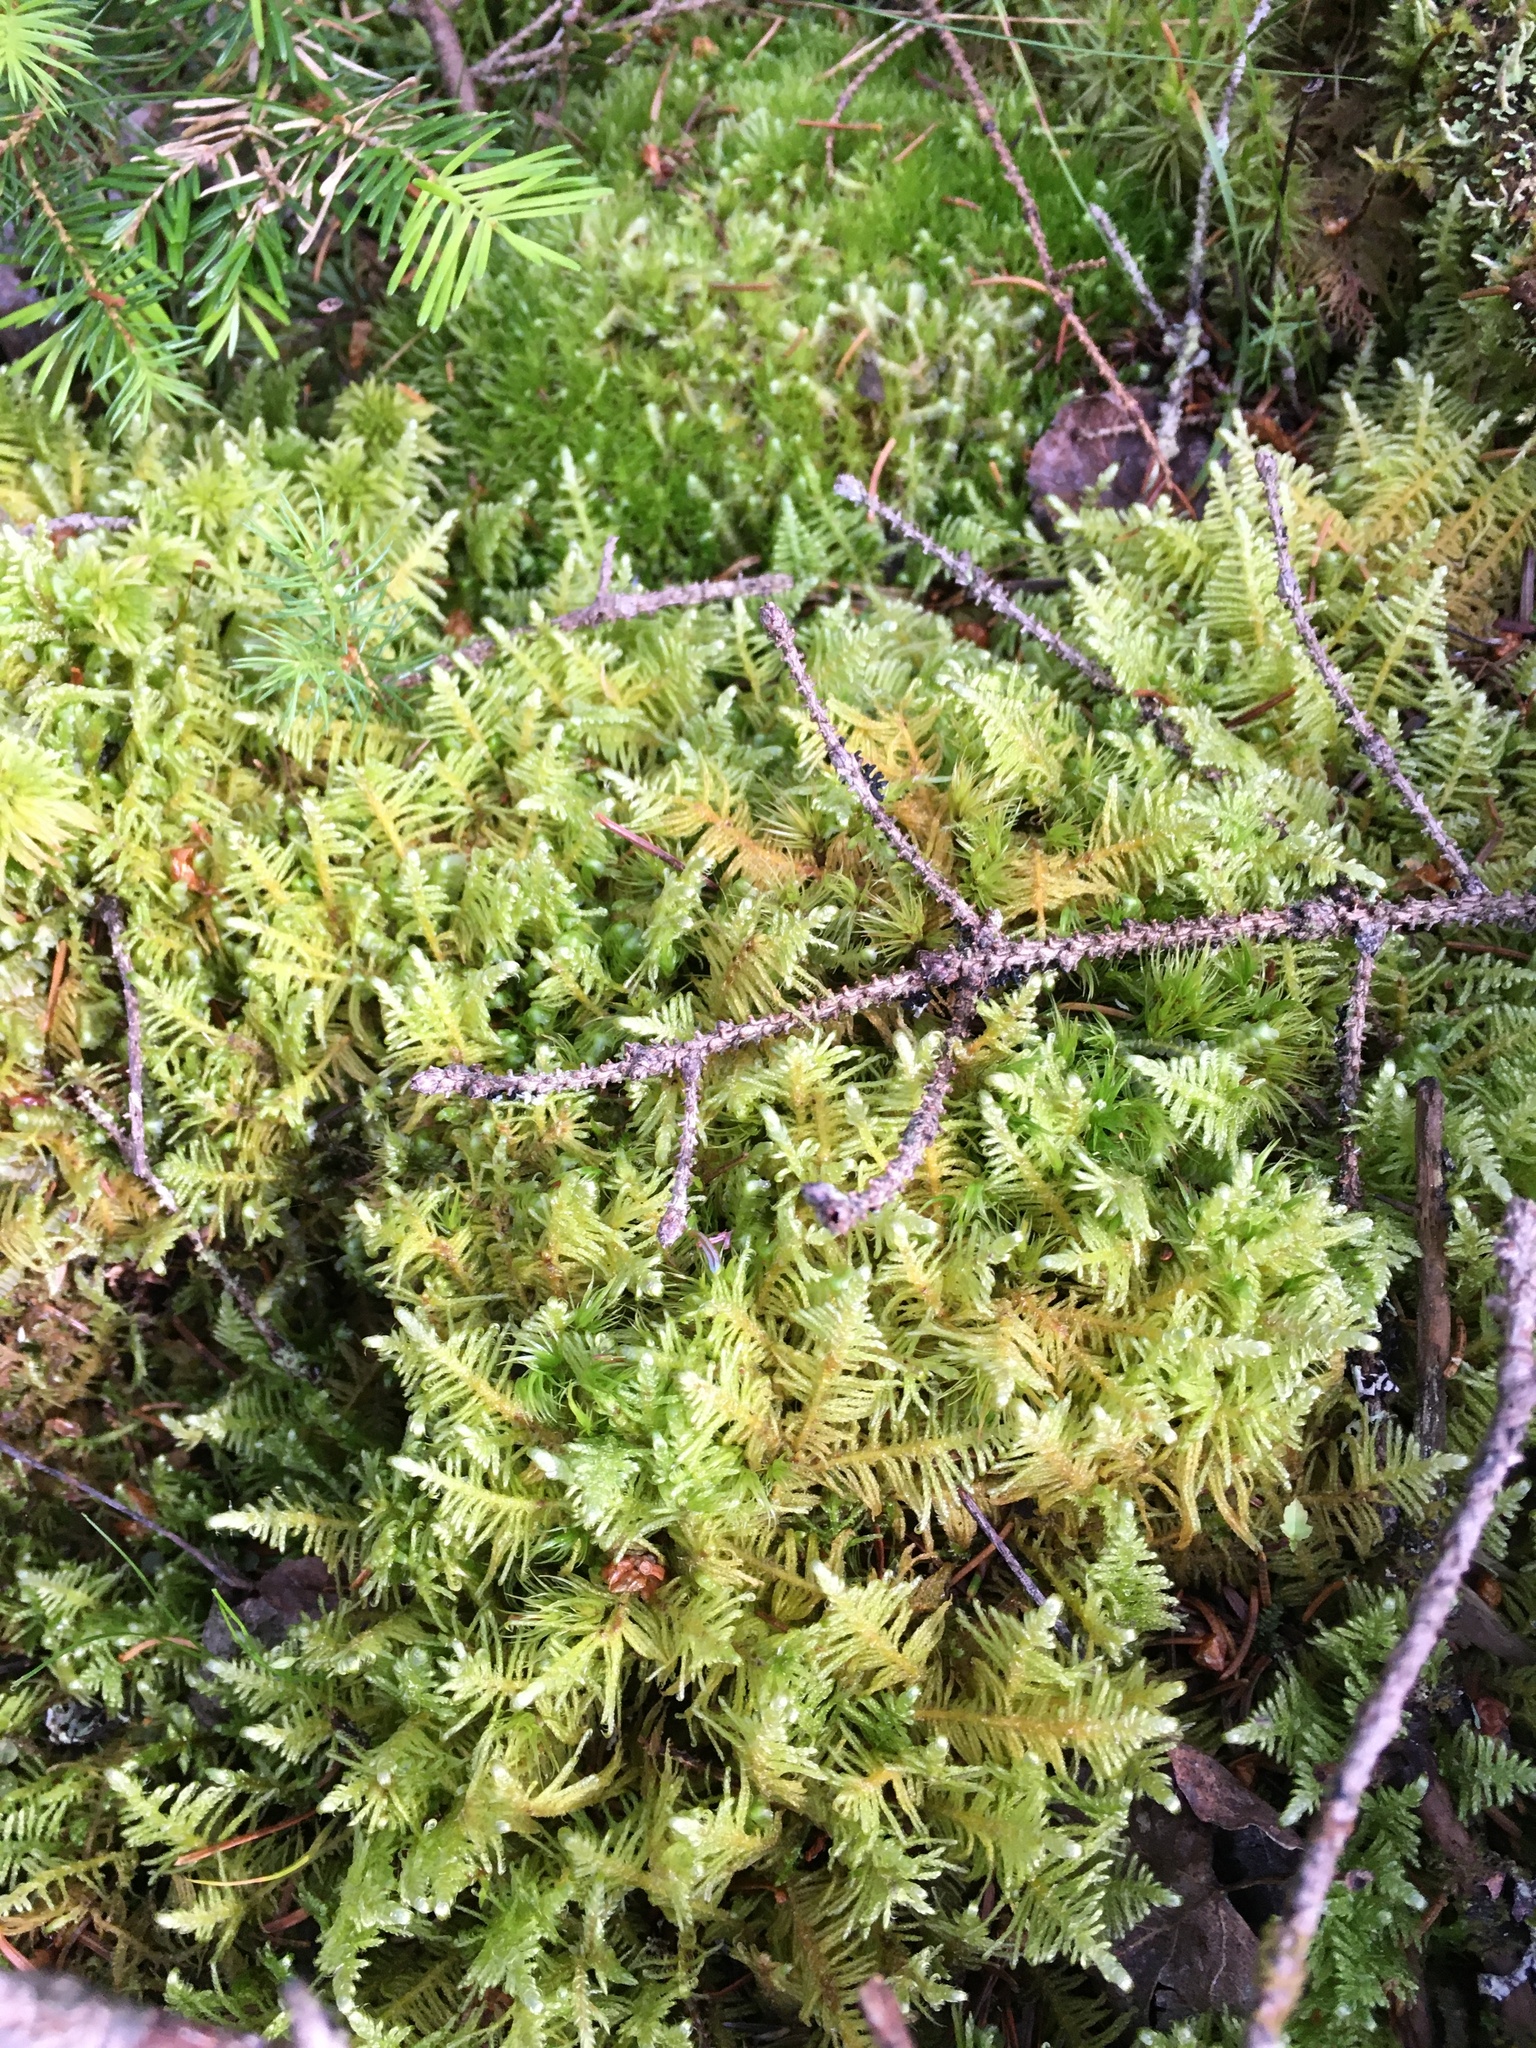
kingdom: Plantae
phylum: Bryophyta
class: Bryopsida
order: Hypnales
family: Pylaisiaceae
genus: Ptilium
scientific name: Ptilium crista-castrensis
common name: Knight's plume moss
